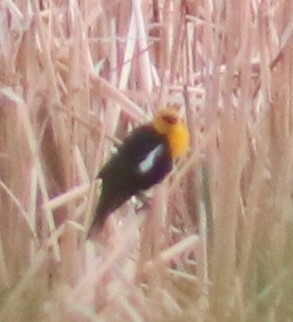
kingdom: Animalia
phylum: Chordata
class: Aves
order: Passeriformes
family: Icteridae
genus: Xanthocephalus
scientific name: Xanthocephalus xanthocephalus
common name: Yellow-headed blackbird
